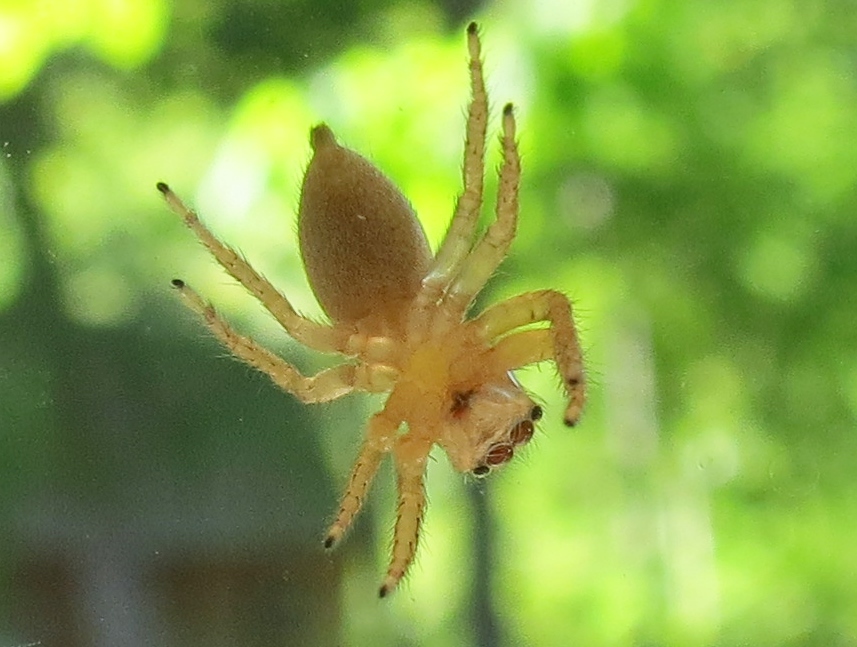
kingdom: Animalia
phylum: Arthropoda
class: Arachnida
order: Araneae
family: Salticidae
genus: Maevia
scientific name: Maevia inclemens
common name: Dimorphic jumper
